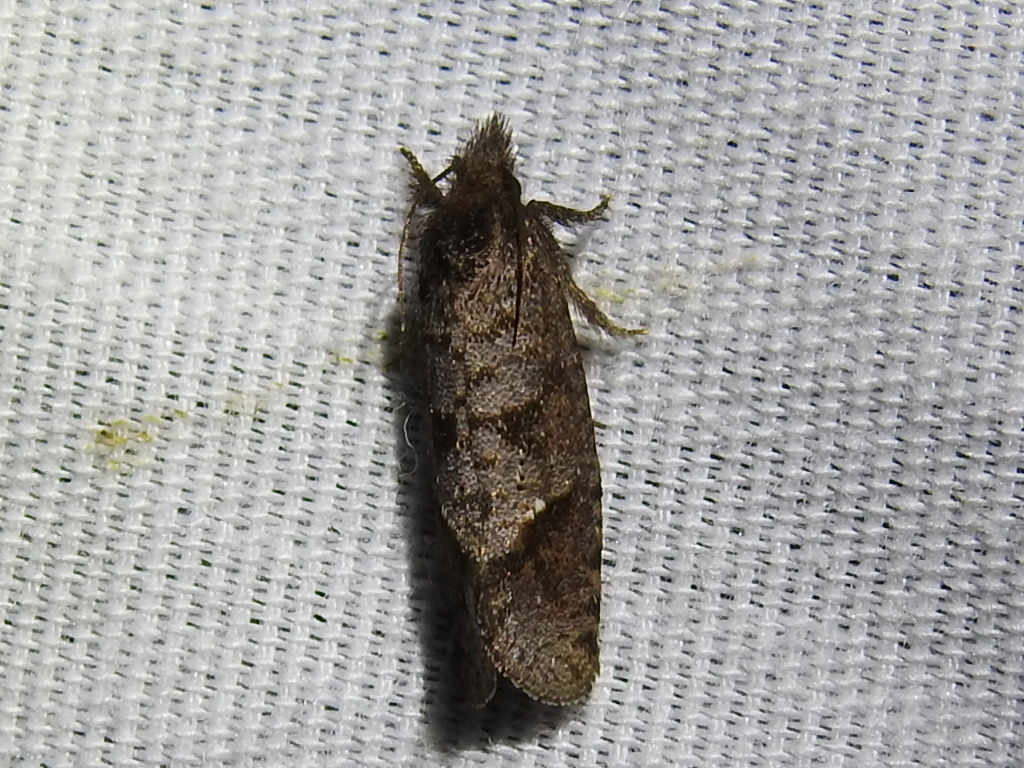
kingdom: Animalia
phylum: Arthropoda
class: Insecta
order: Lepidoptera
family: Tineidae
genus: Acrolophus
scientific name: Acrolophus texanella
